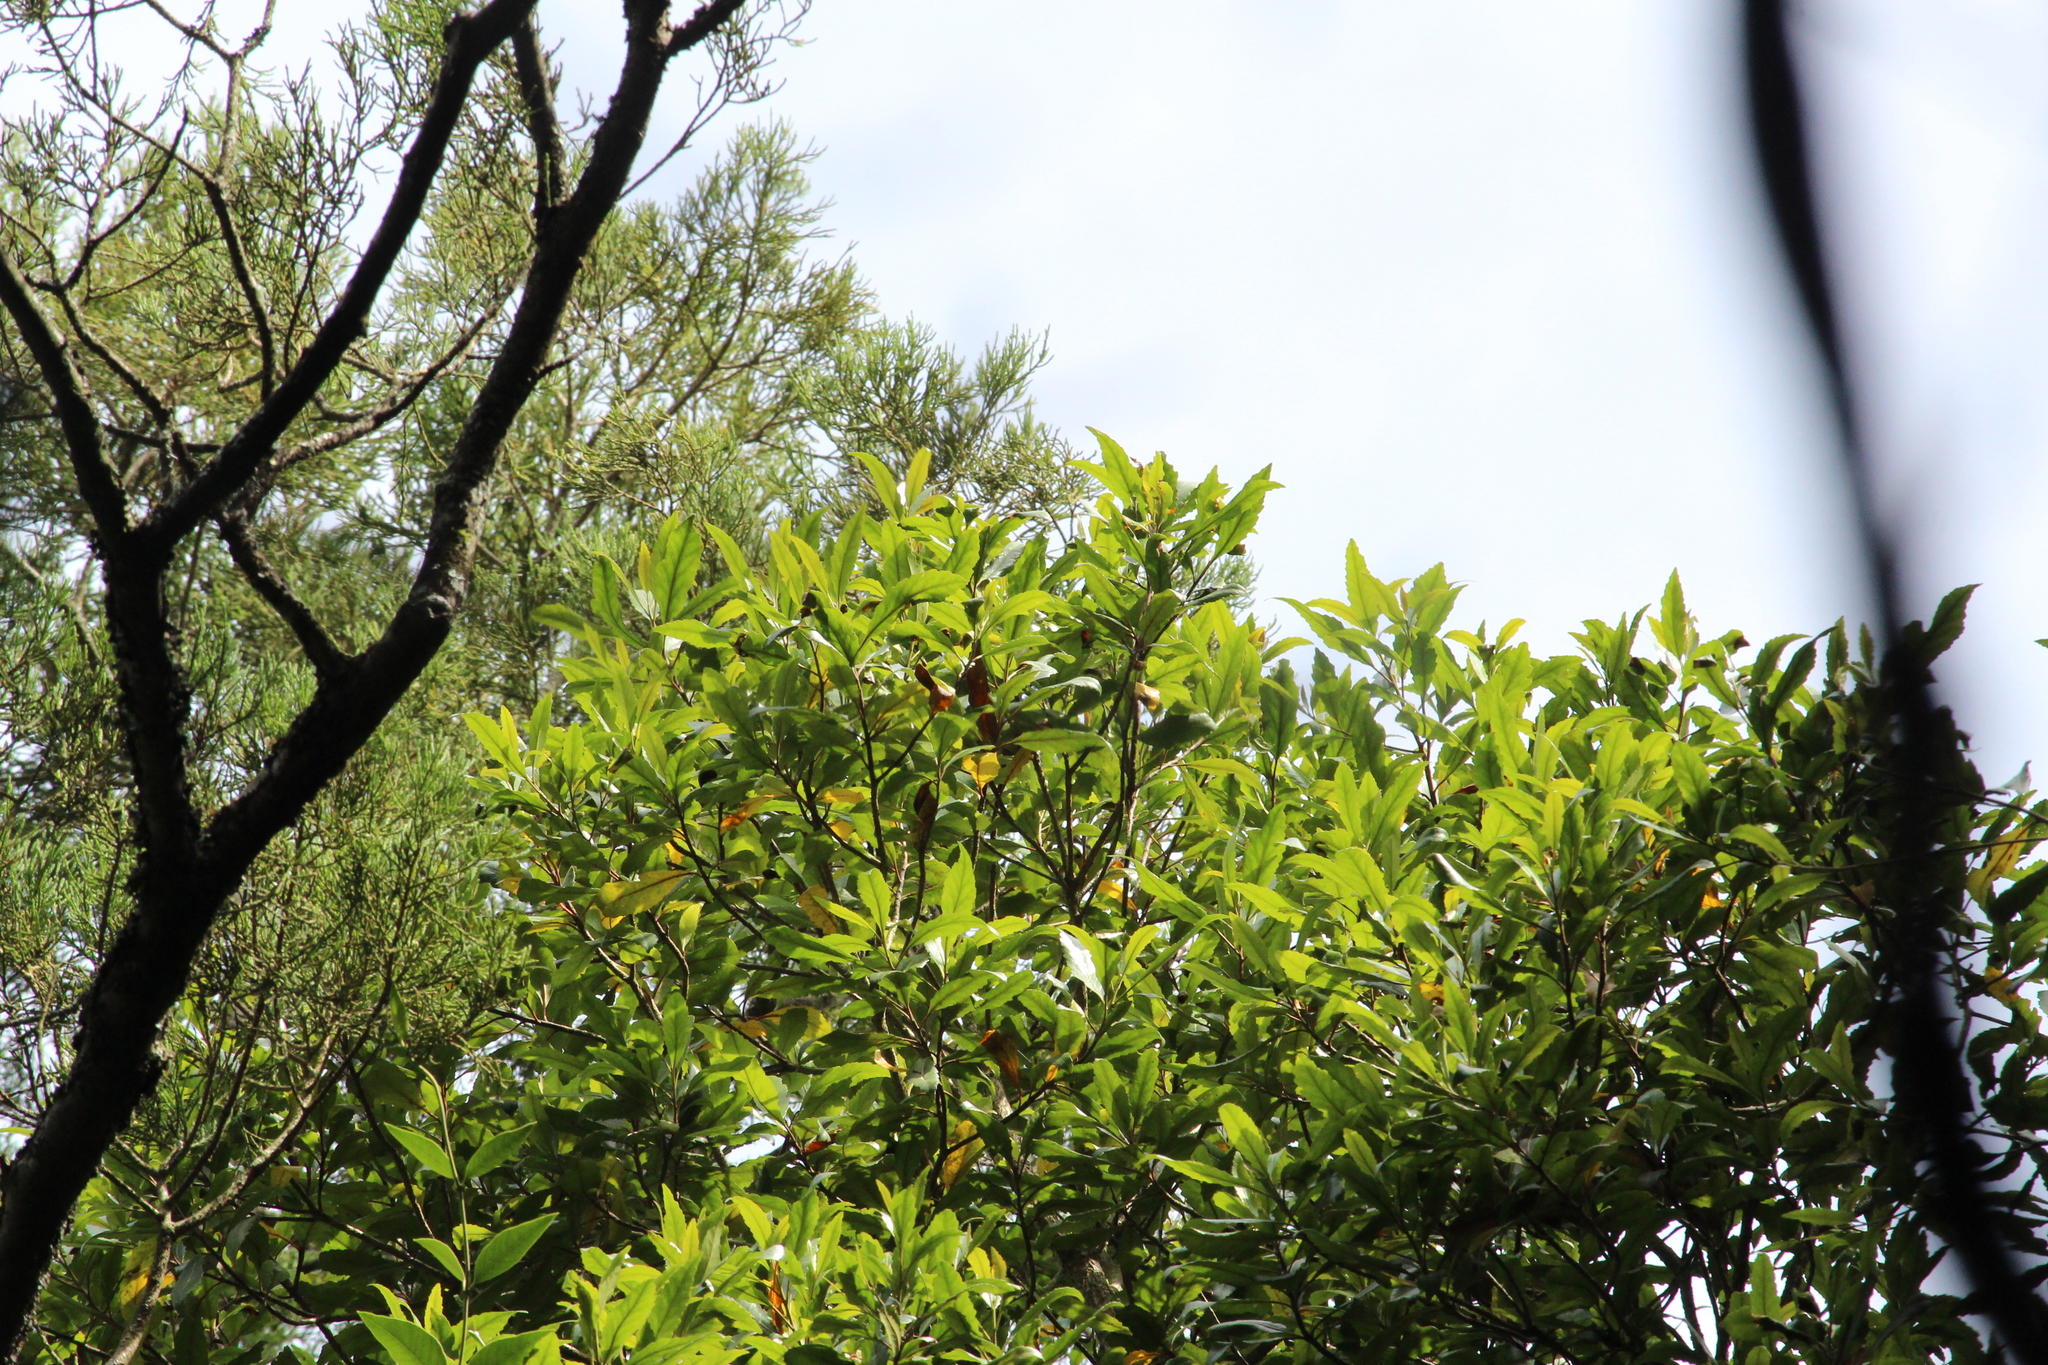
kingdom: Plantae
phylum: Tracheophyta
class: Magnoliopsida
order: Oxalidales
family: Elaeocarpaceae
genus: Elaeocarpus
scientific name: Elaeocarpus hookerianus
